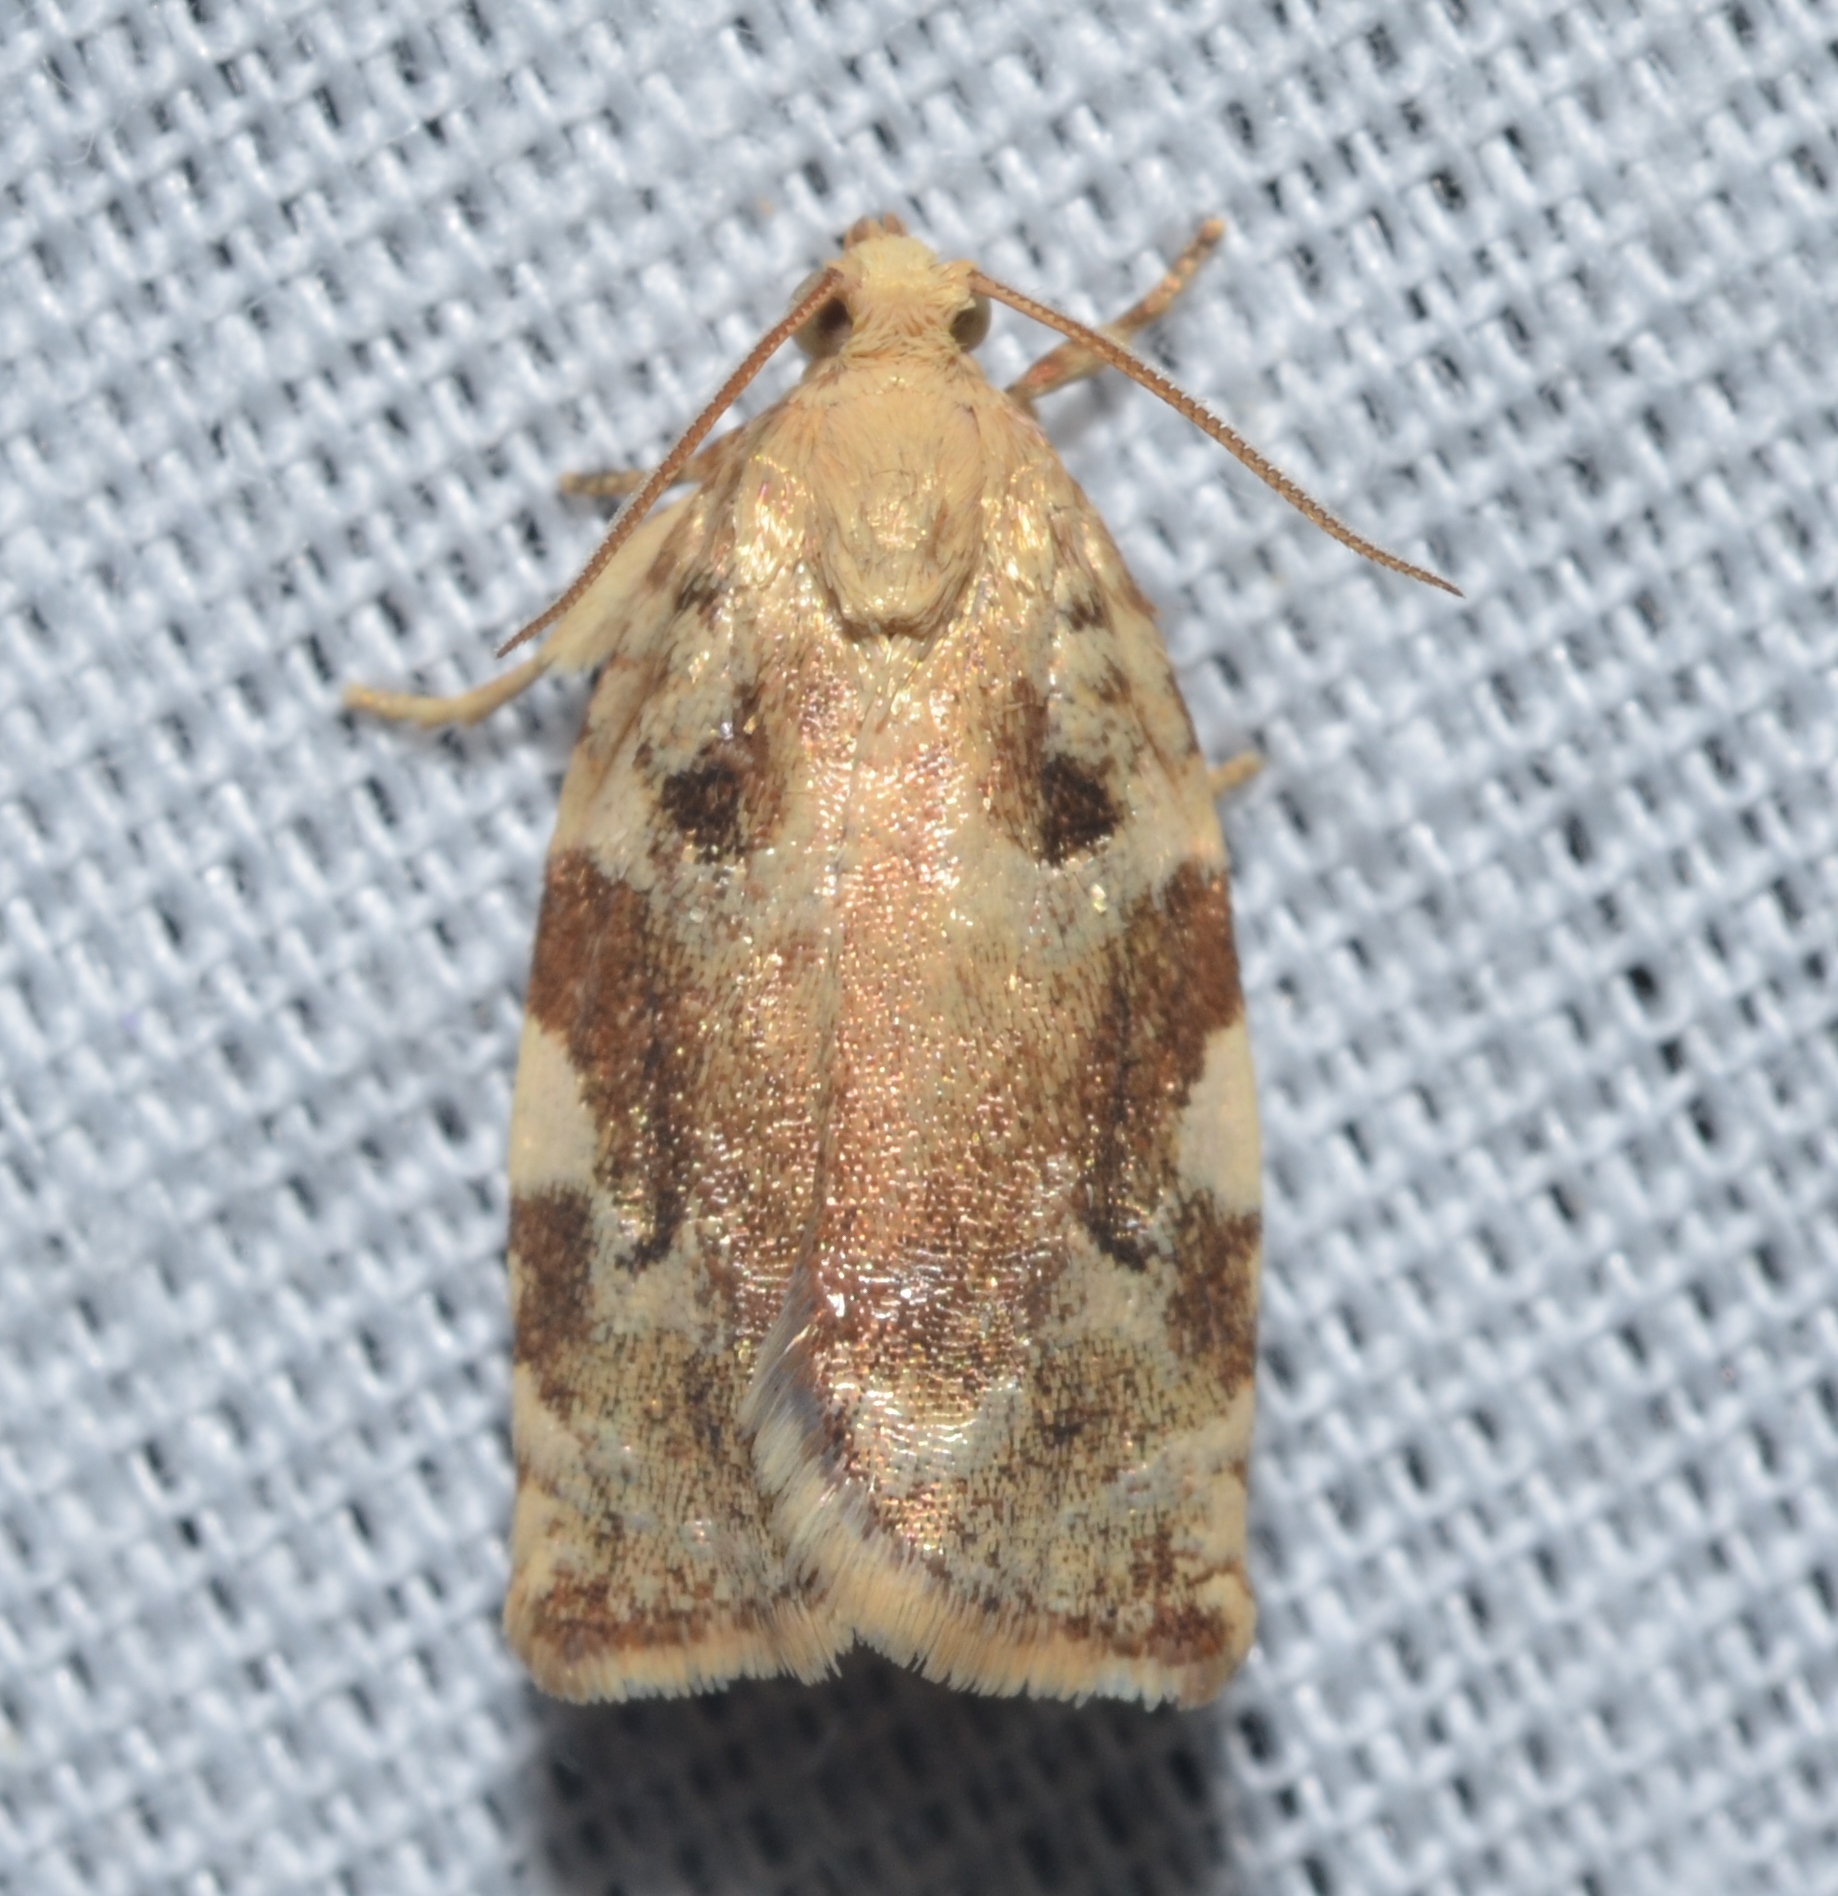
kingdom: Animalia
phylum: Arthropoda
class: Insecta
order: Lepidoptera
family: Tortricidae
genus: Archips
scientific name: Archips semiferanus
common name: Oak leafroller
